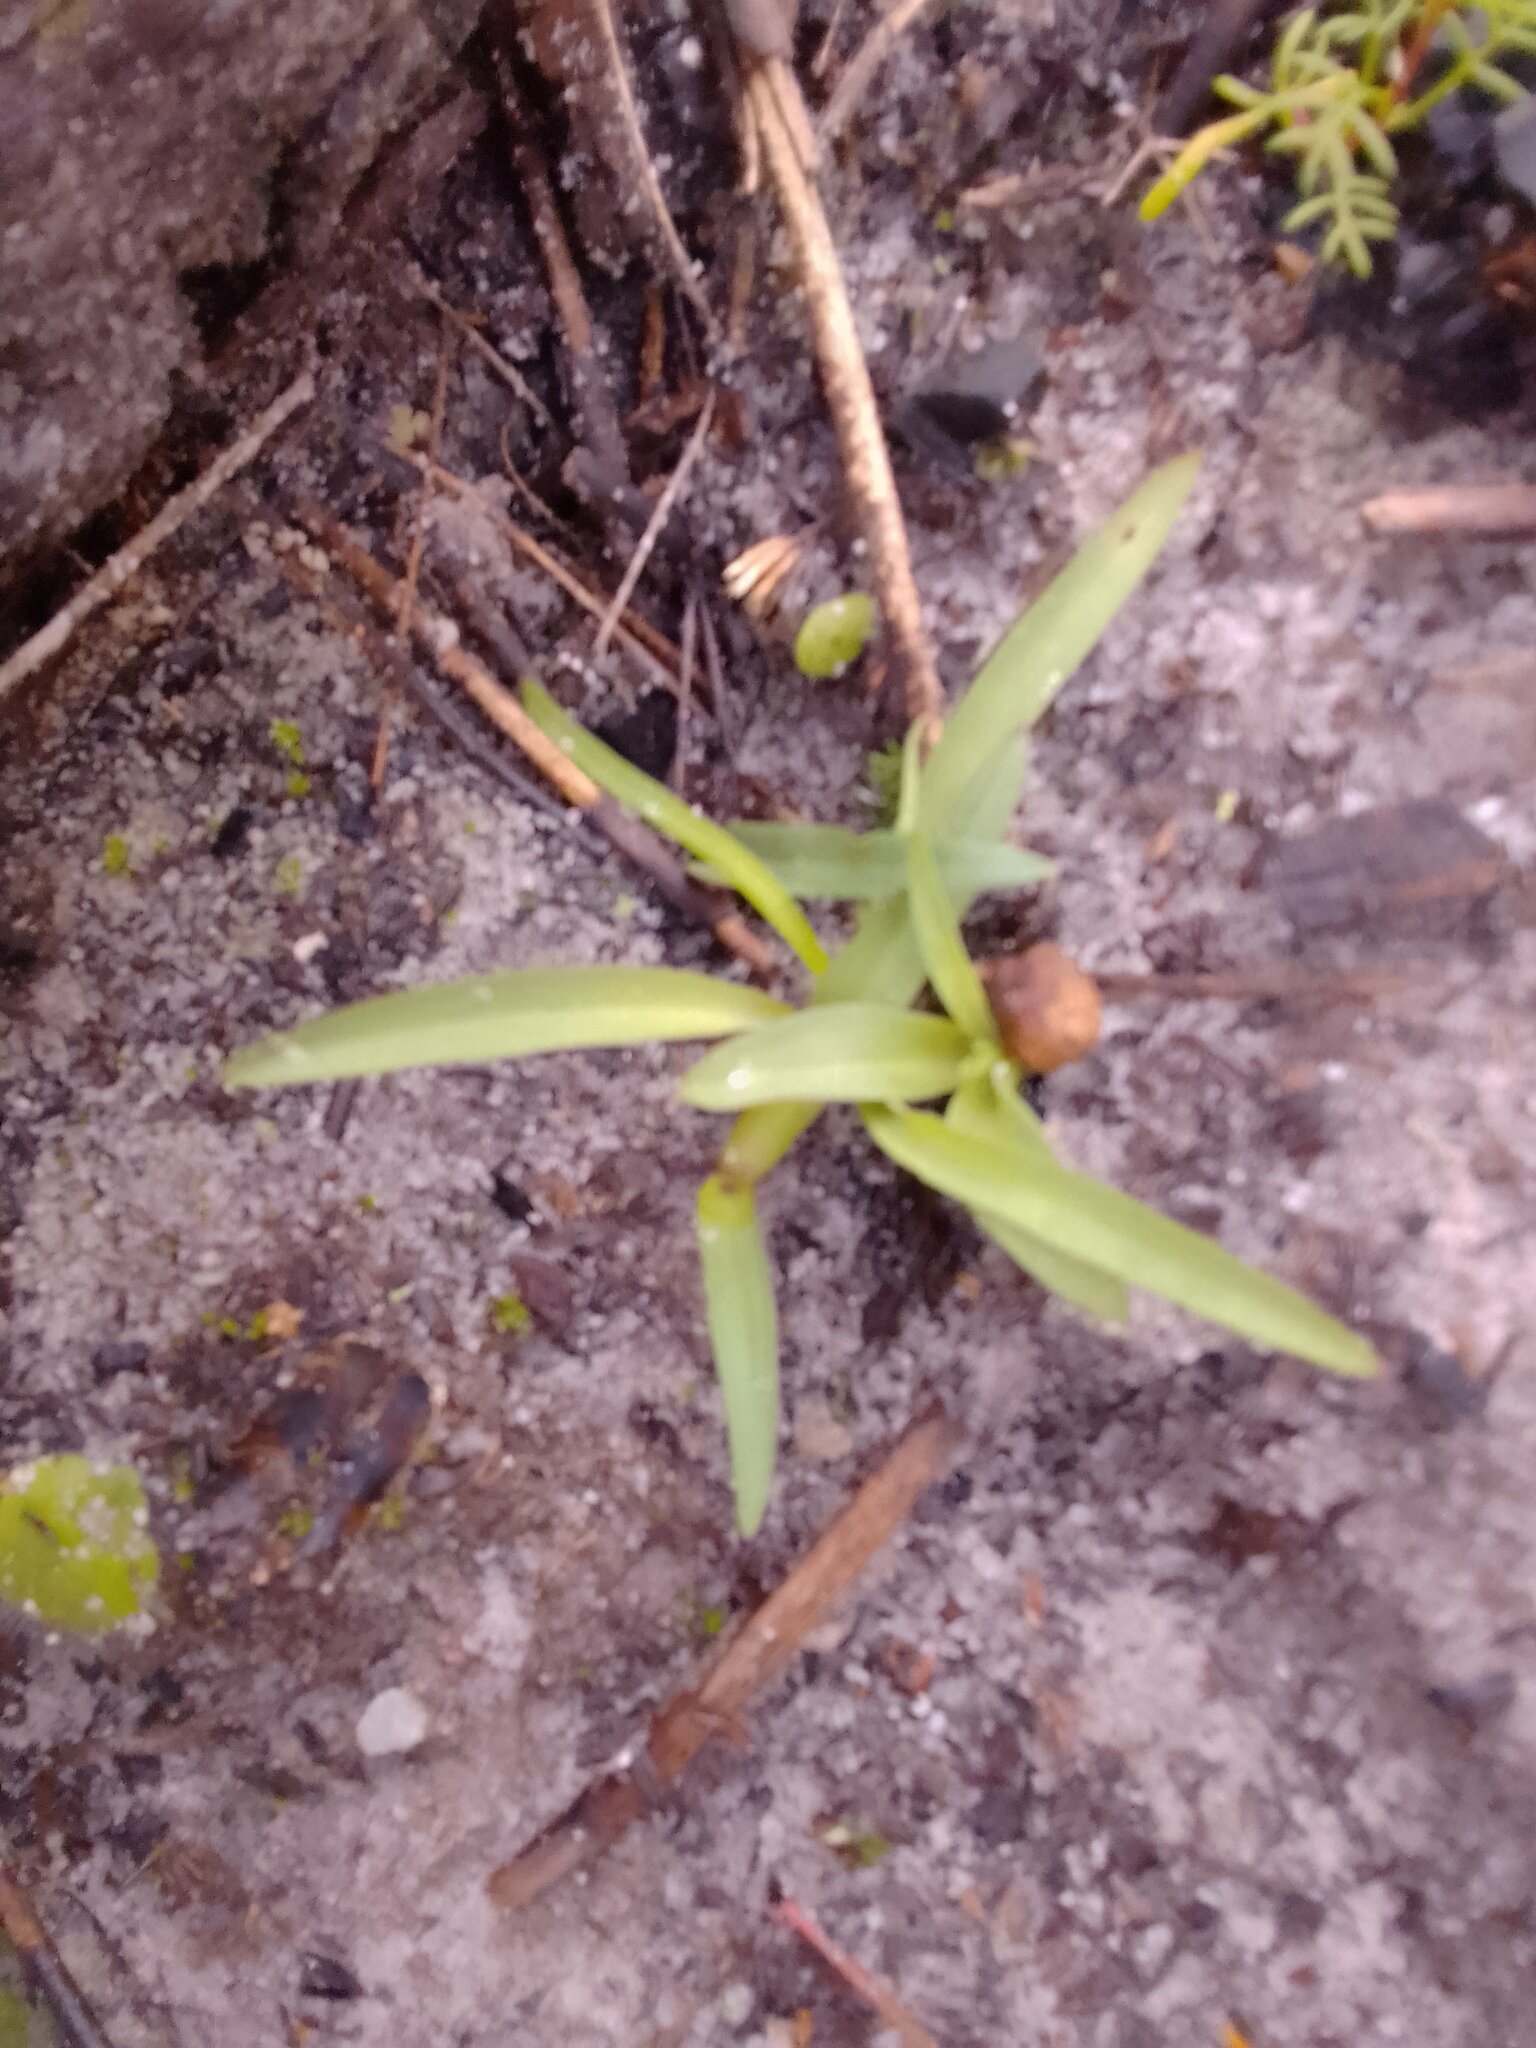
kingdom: Plantae
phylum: Tracheophyta
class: Liliopsida
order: Asparagales
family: Orchidaceae
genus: Disa
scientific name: Disa bracteata
